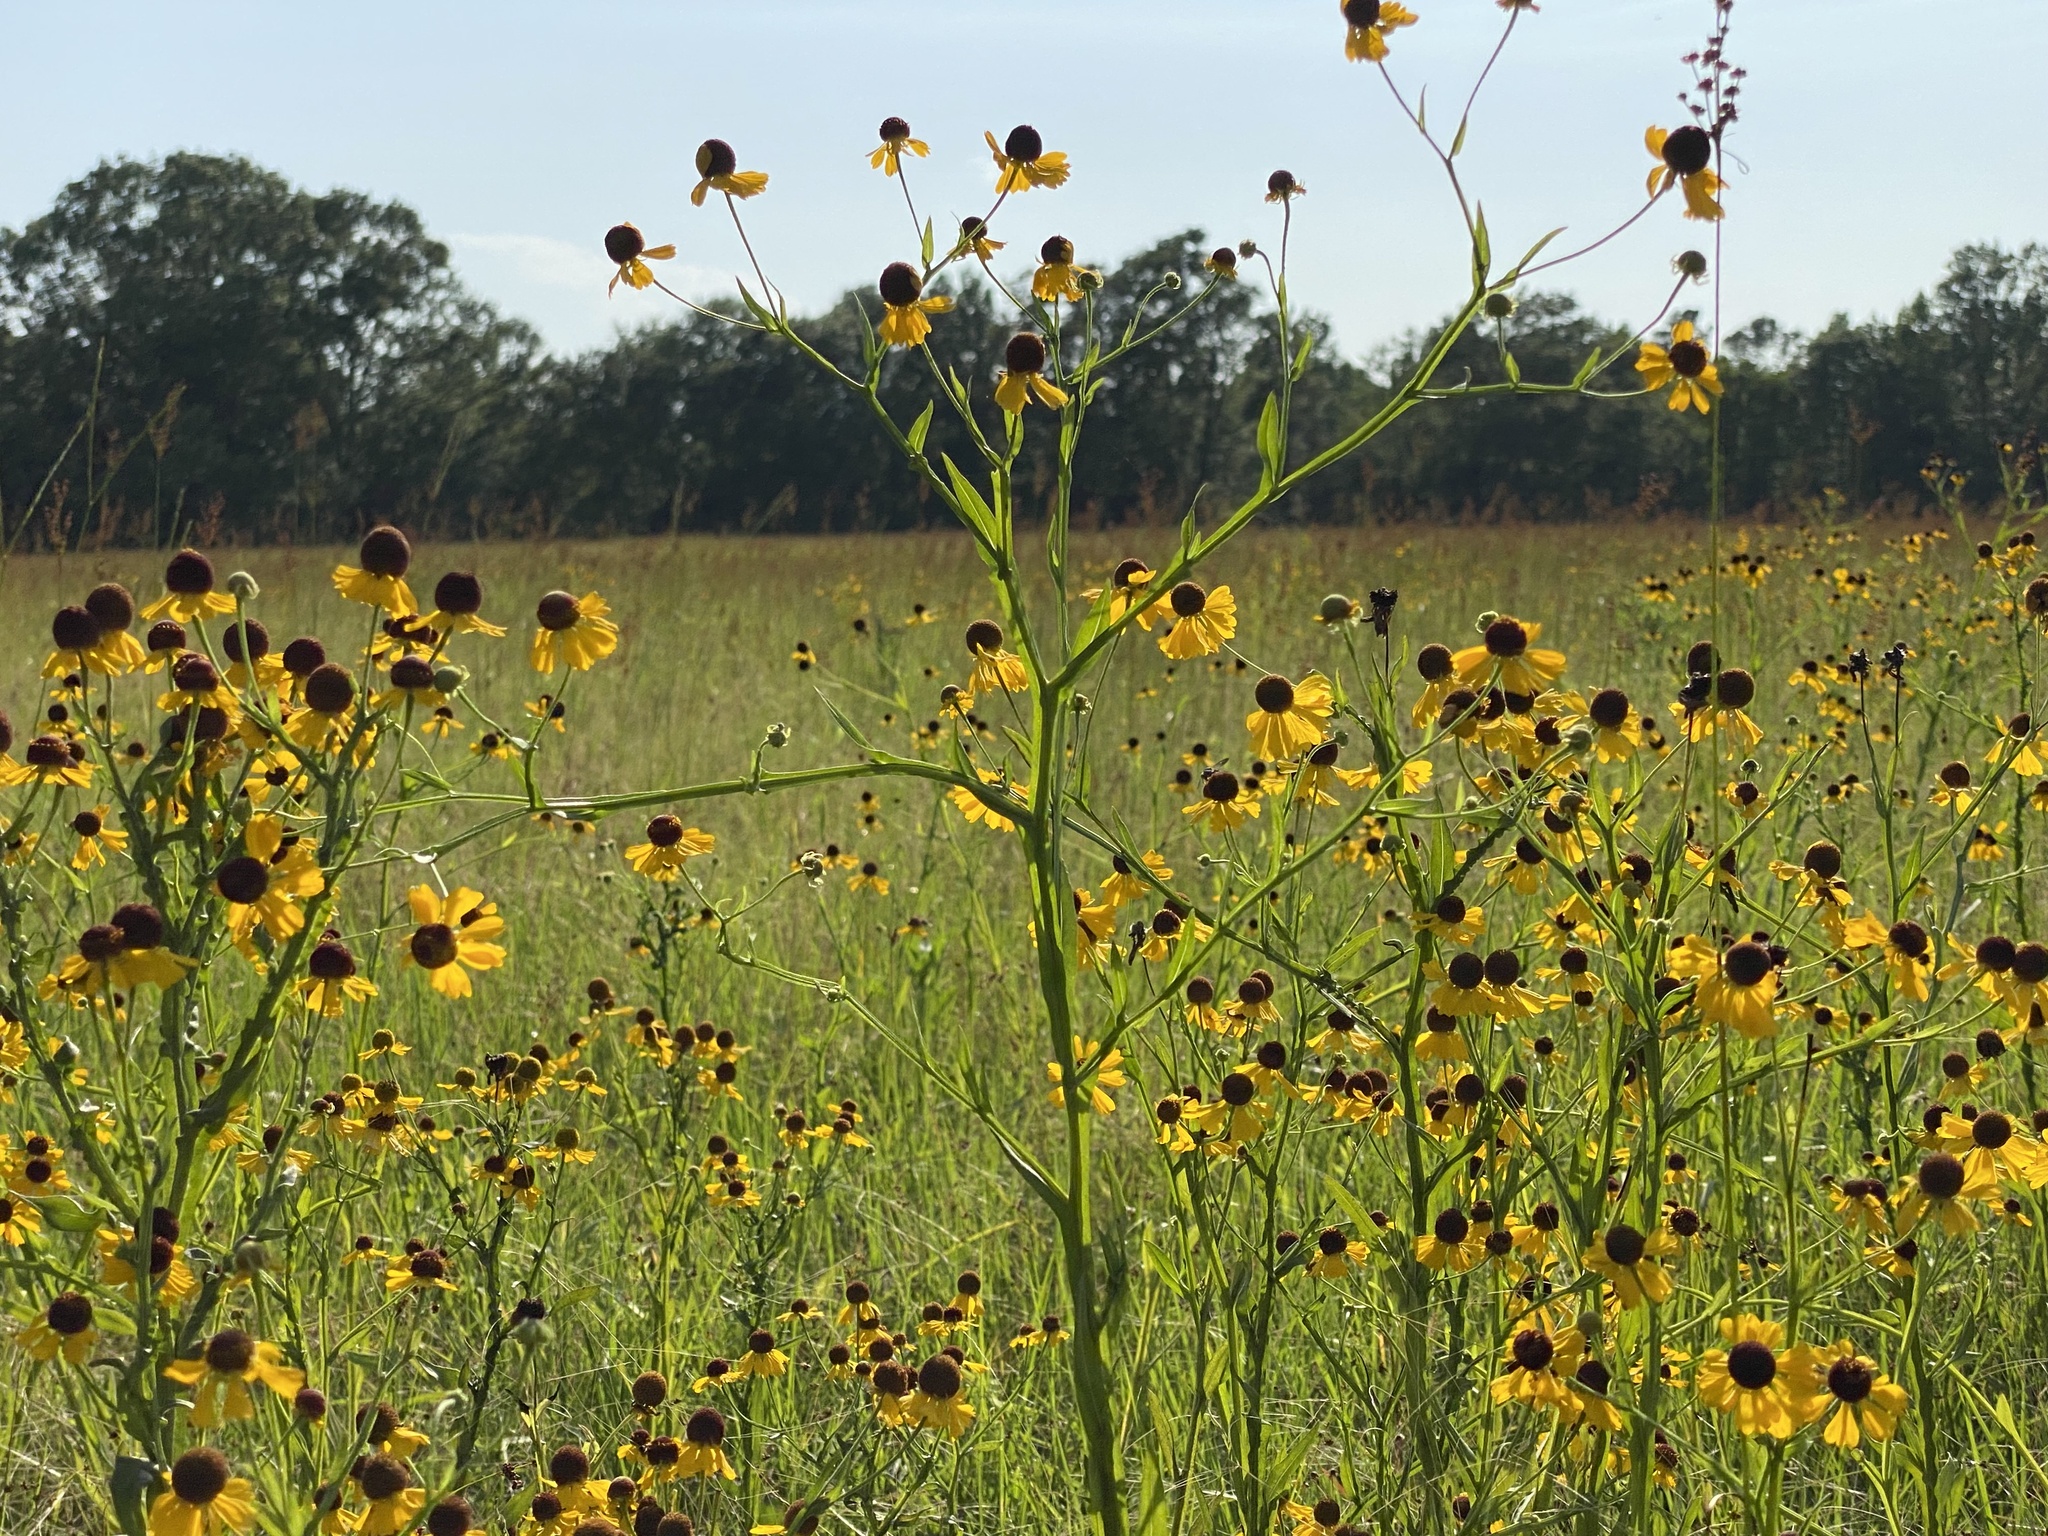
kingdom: Plantae
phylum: Tracheophyta
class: Magnoliopsida
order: Asterales
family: Asteraceae
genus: Helenium
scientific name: Helenium flexuosum
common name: Naked-flowered sneezeweed
